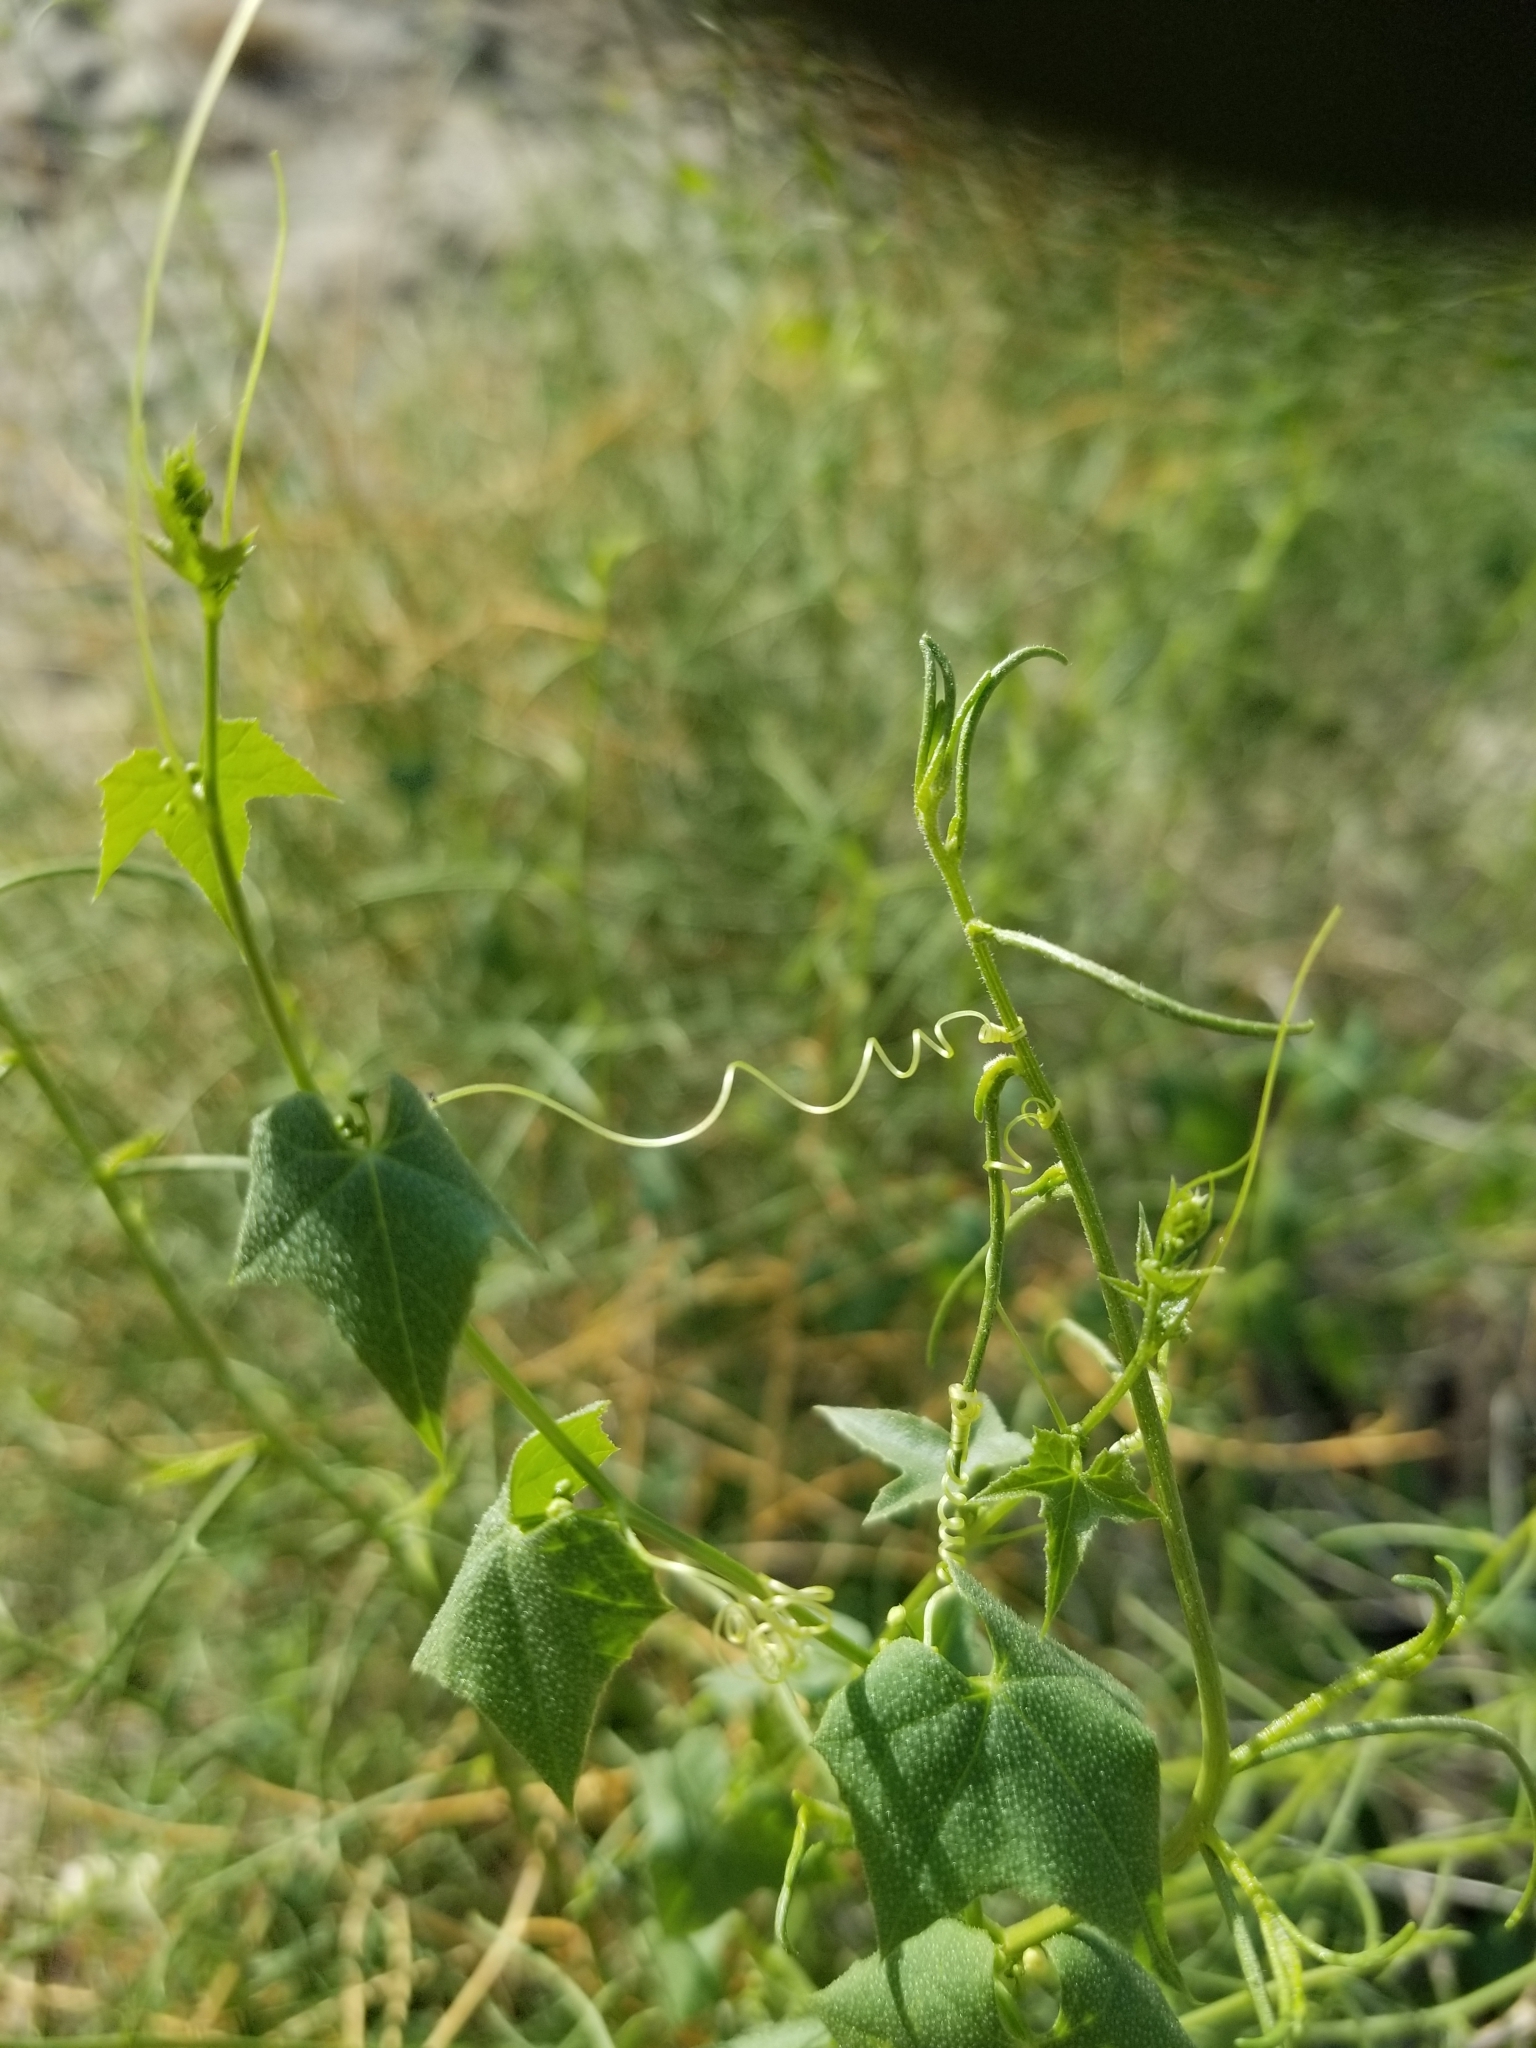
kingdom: Plantae
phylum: Tracheophyta
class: Magnoliopsida
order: Cucurbitales
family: Cucurbitaceae
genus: Echinopepon
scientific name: Echinopepon bigelovii
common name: Desert starvine
